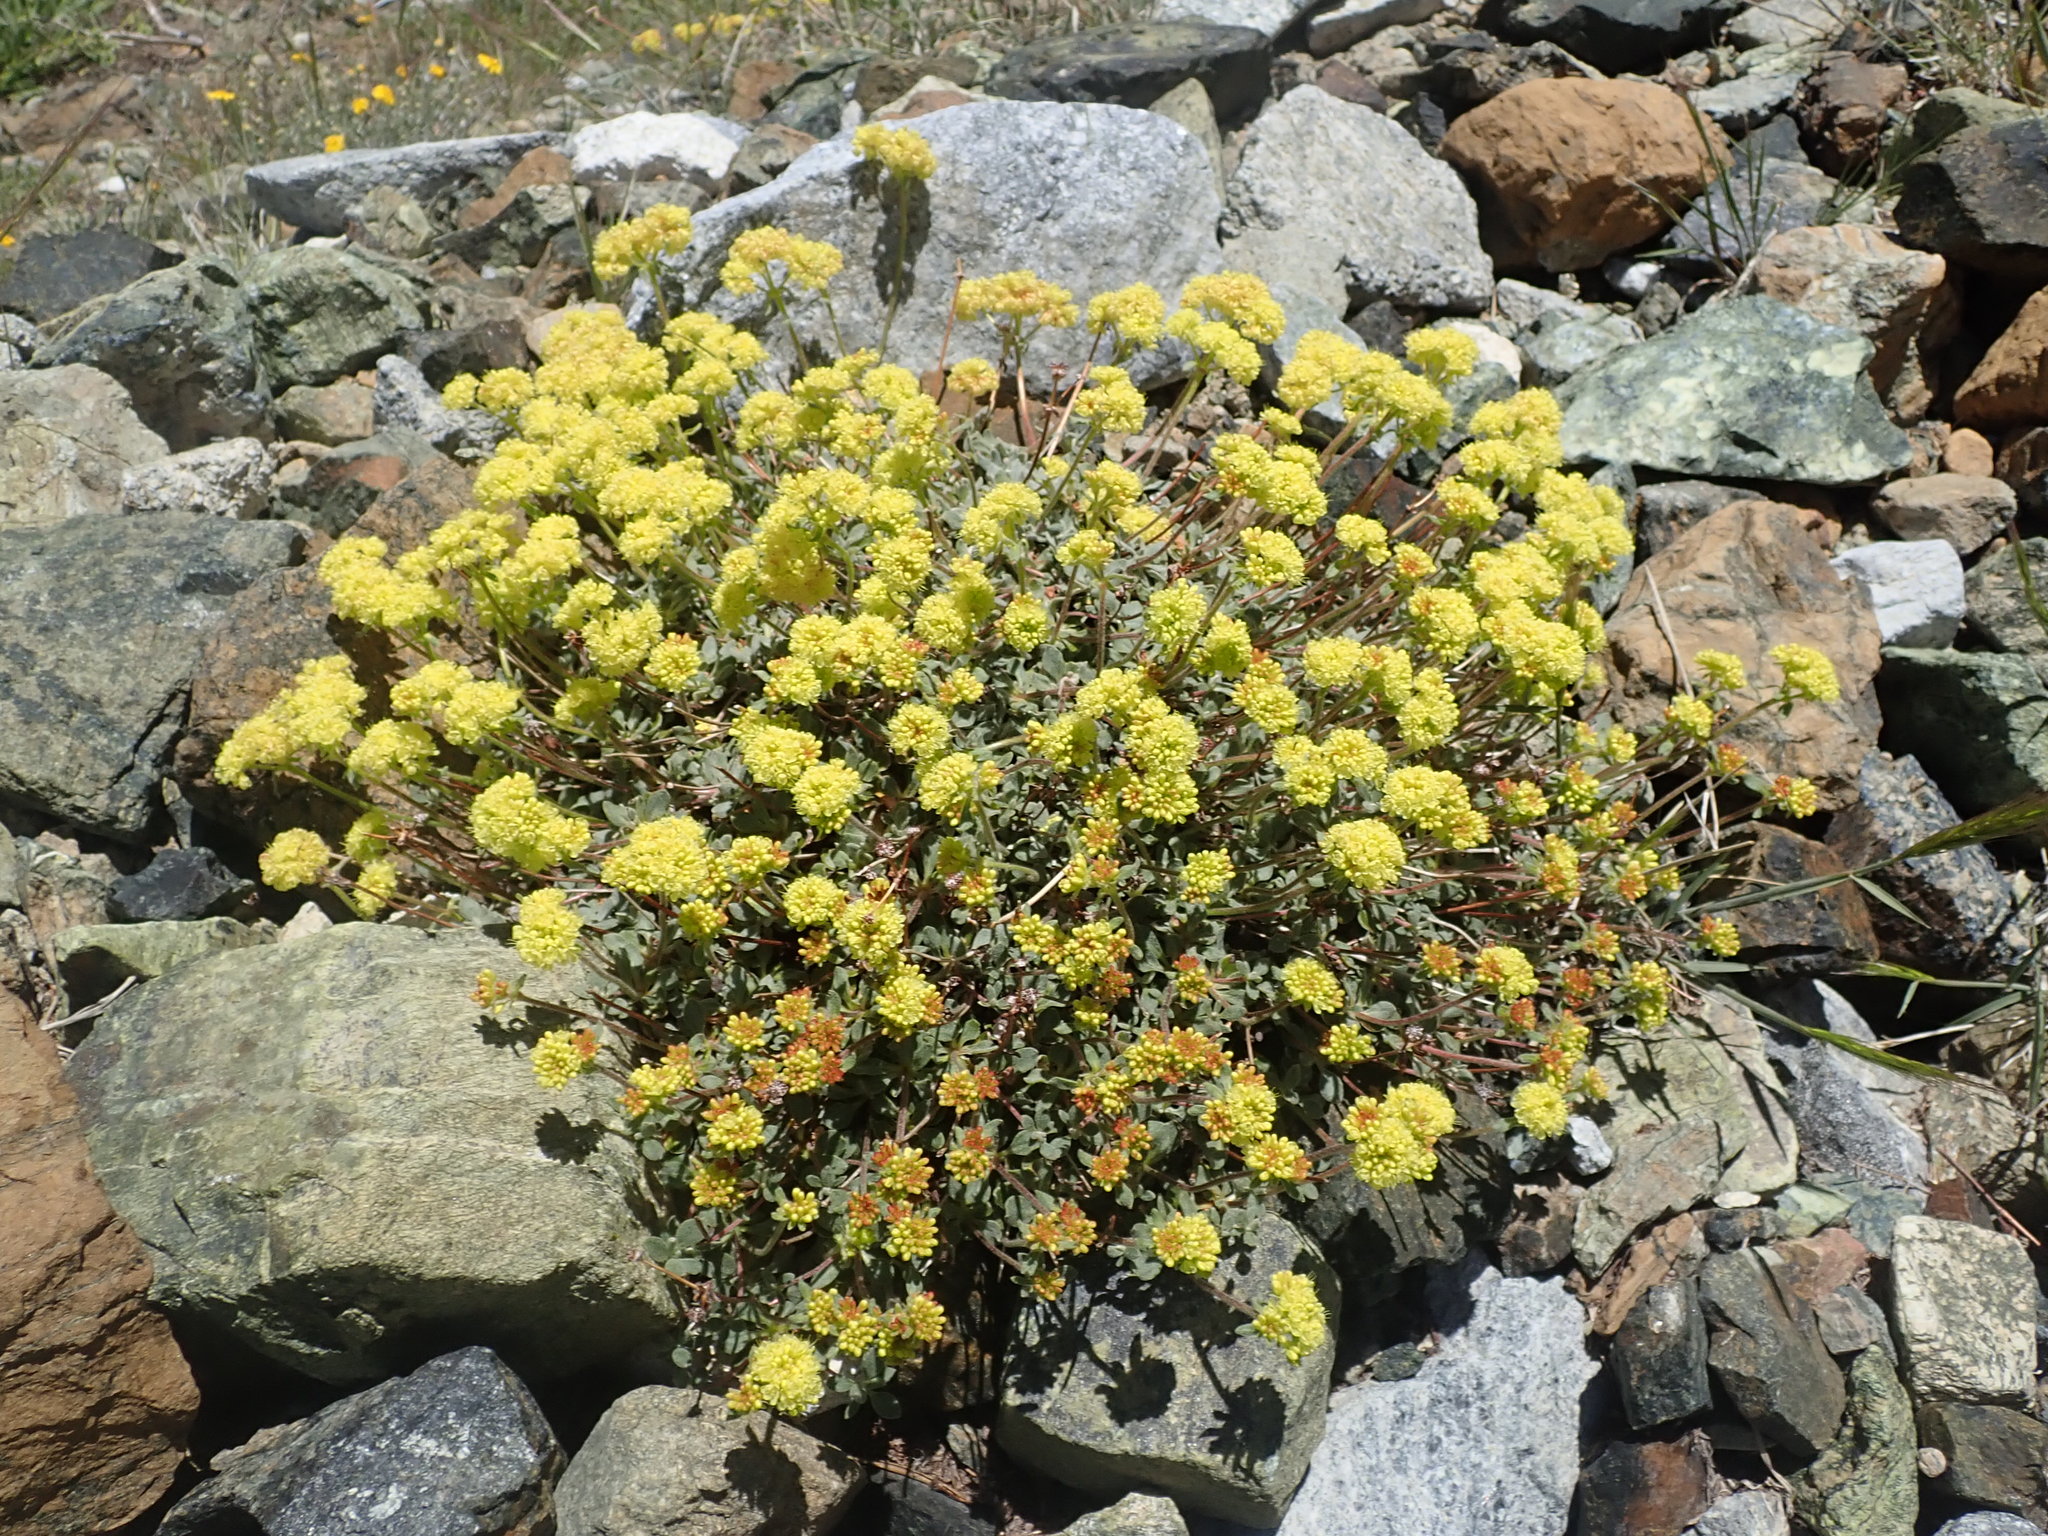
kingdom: Plantae
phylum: Tracheophyta
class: Magnoliopsida
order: Caryophyllales
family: Polygonaceae
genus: Eriogonum
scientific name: Eriogonum umbellatum
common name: Sulfur-buckwheat
